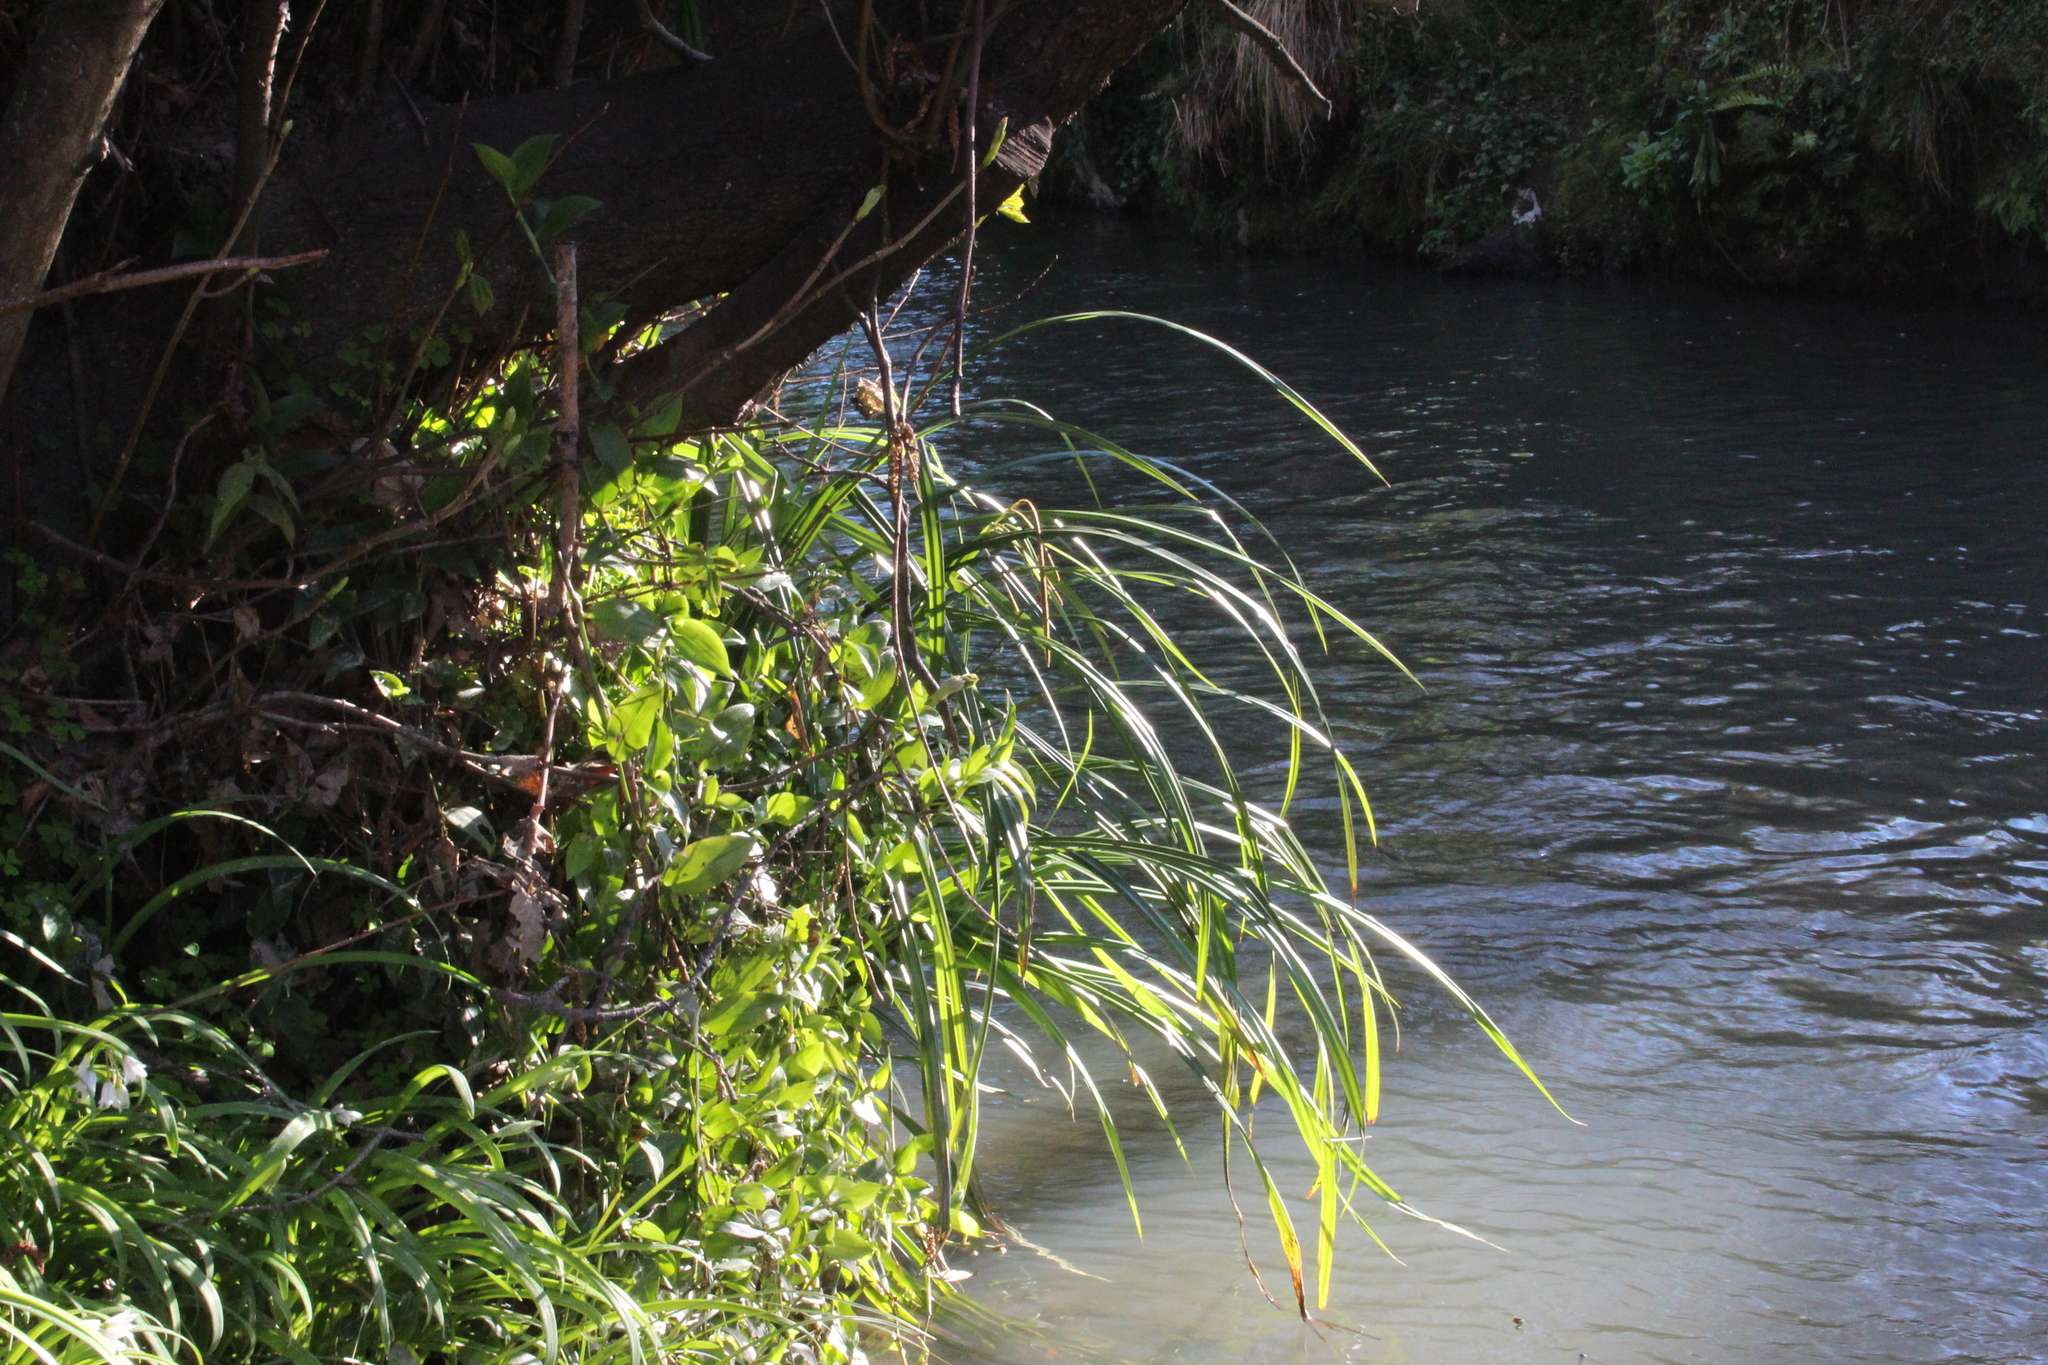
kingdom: Plantae
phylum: Tracheophyta
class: Liliopsida
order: Poales
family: Cyperaceae
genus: Carex
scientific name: Carex pendula
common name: Pendulous sedge
